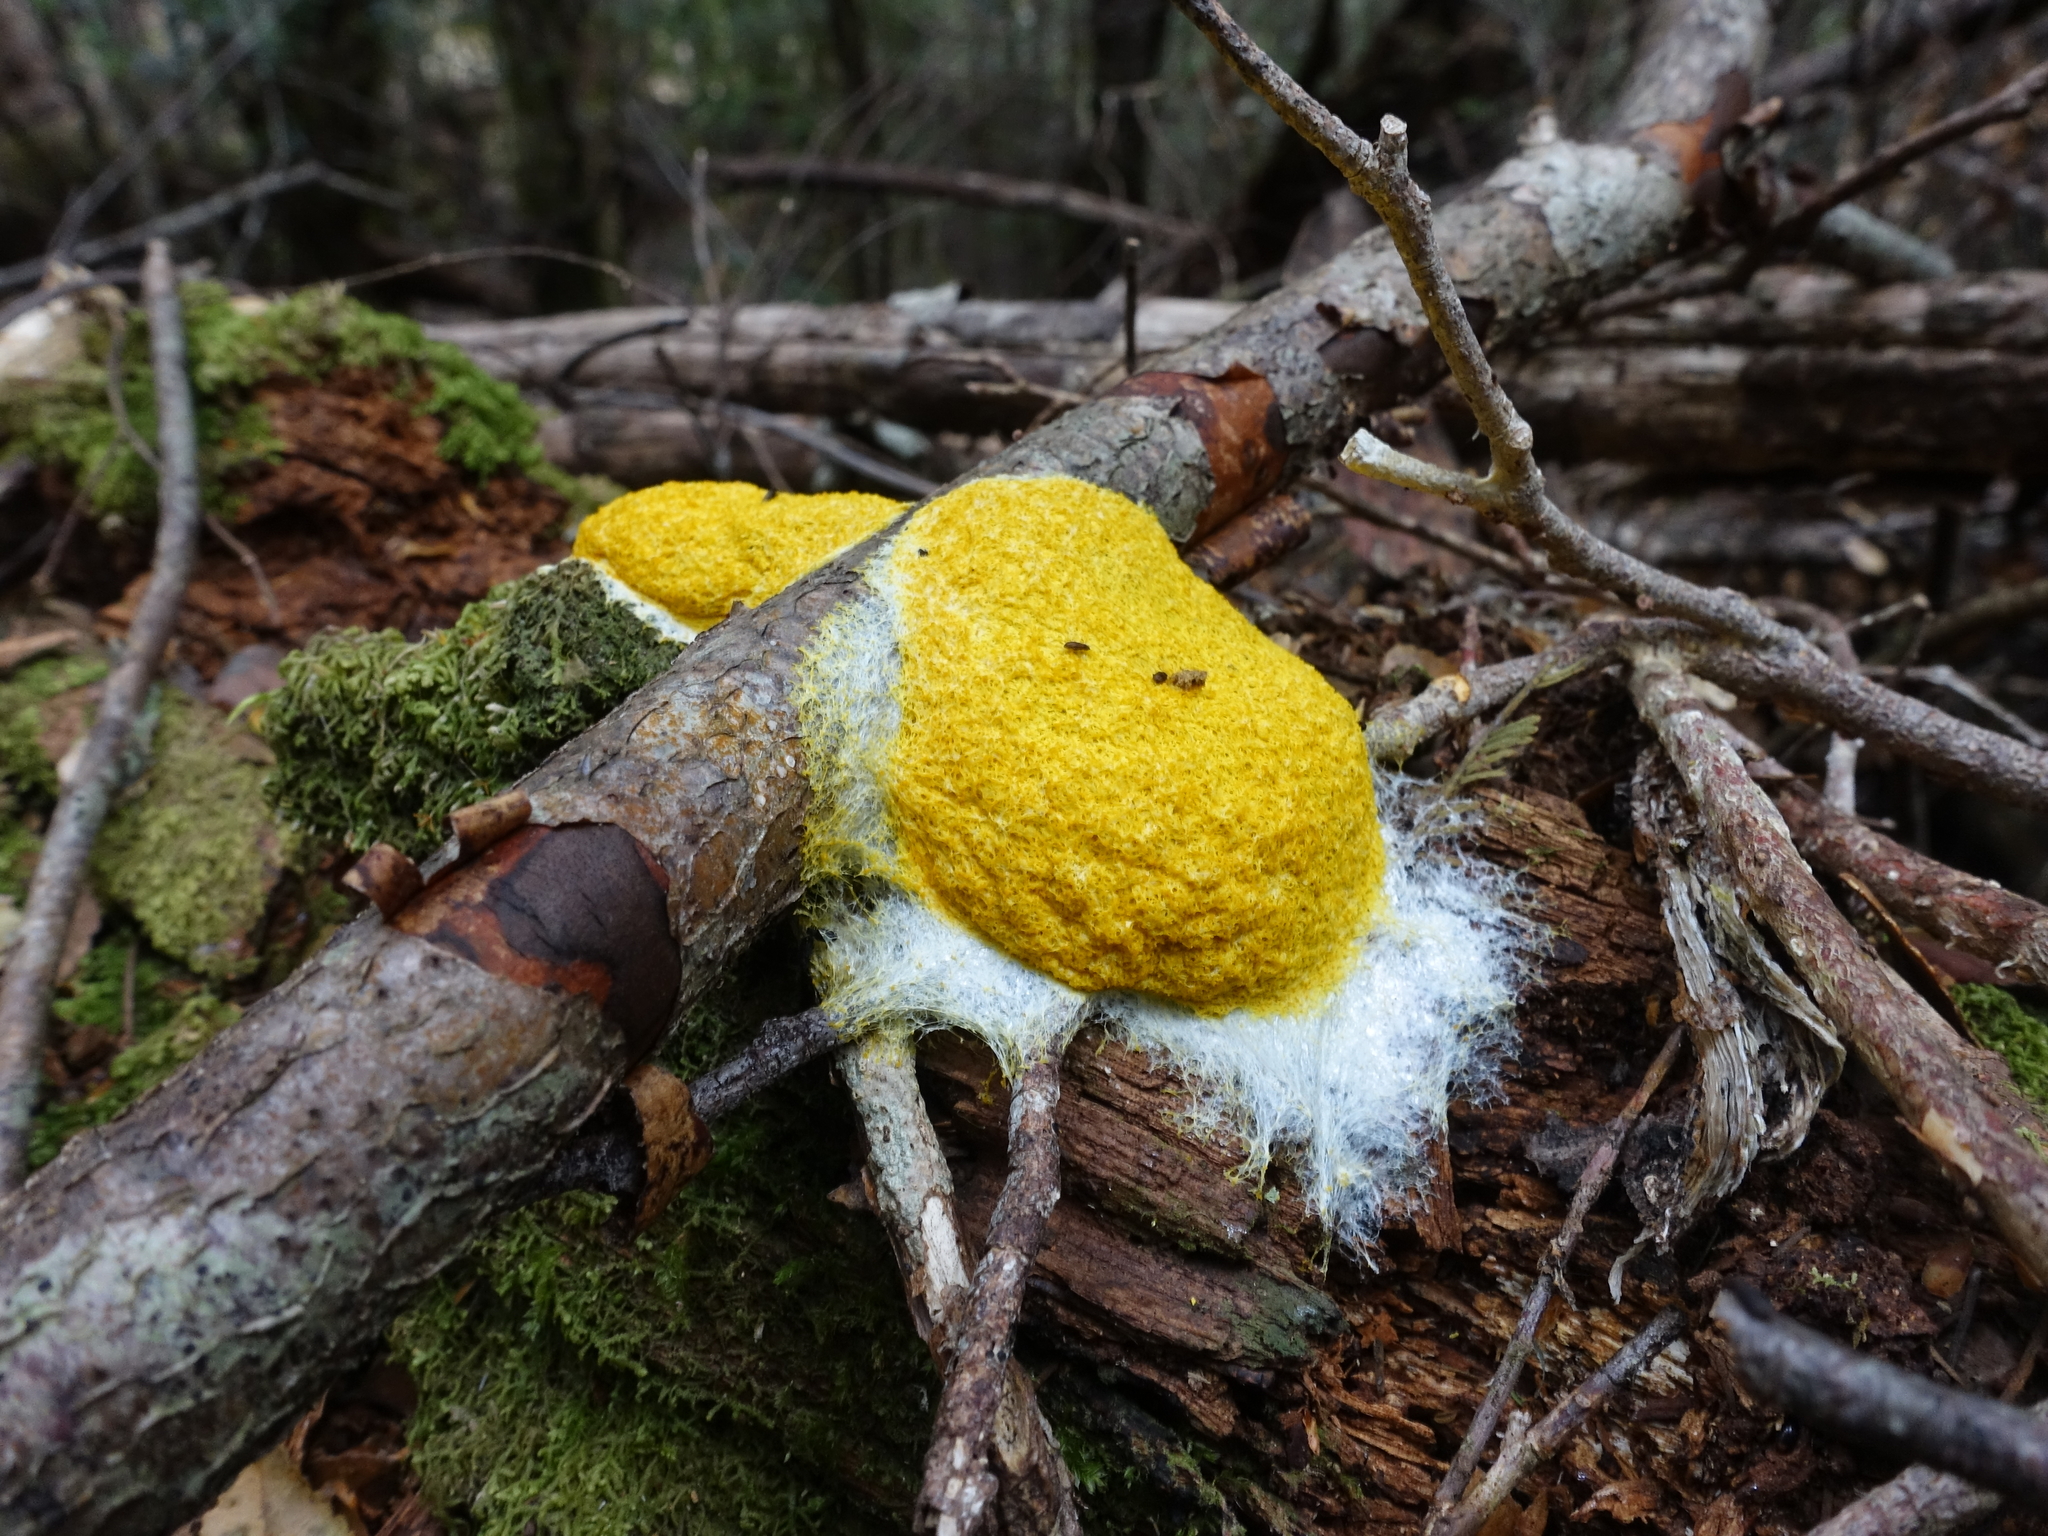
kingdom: Protozoa
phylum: Mycetozoa
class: Myxomycetes
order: Physarales
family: Physaraceae
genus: Fuligo
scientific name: Fuligo septica
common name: Dog vomit slime mold
